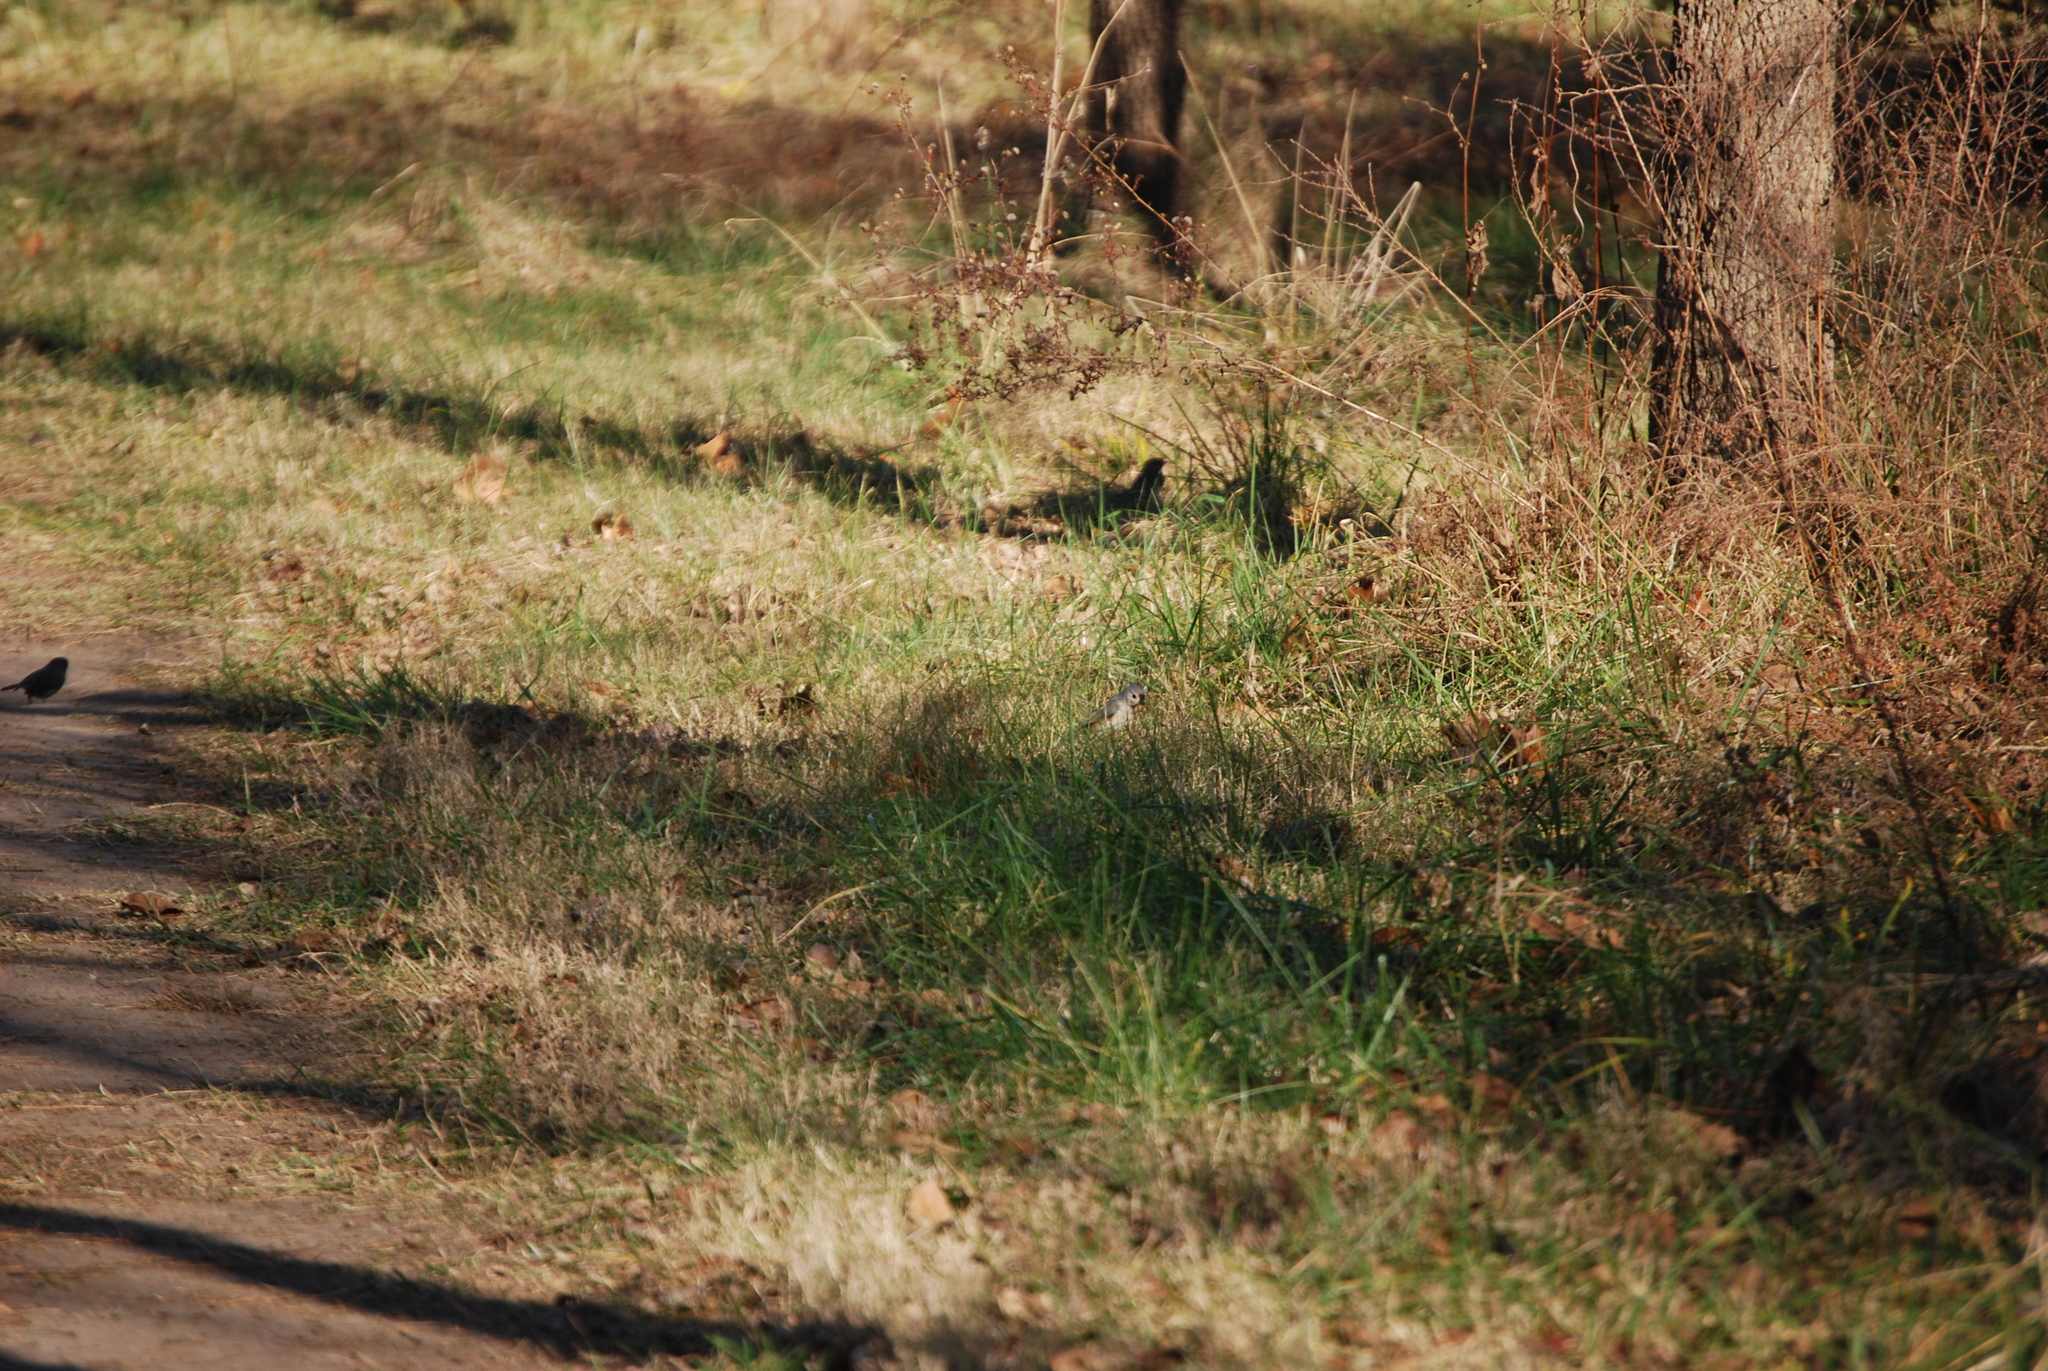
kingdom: Animalia
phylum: Chordata
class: Aves
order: Passeriformes
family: Paridae
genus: Baeolophus
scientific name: Baeolophus bicolor
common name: Tufted titmouse
